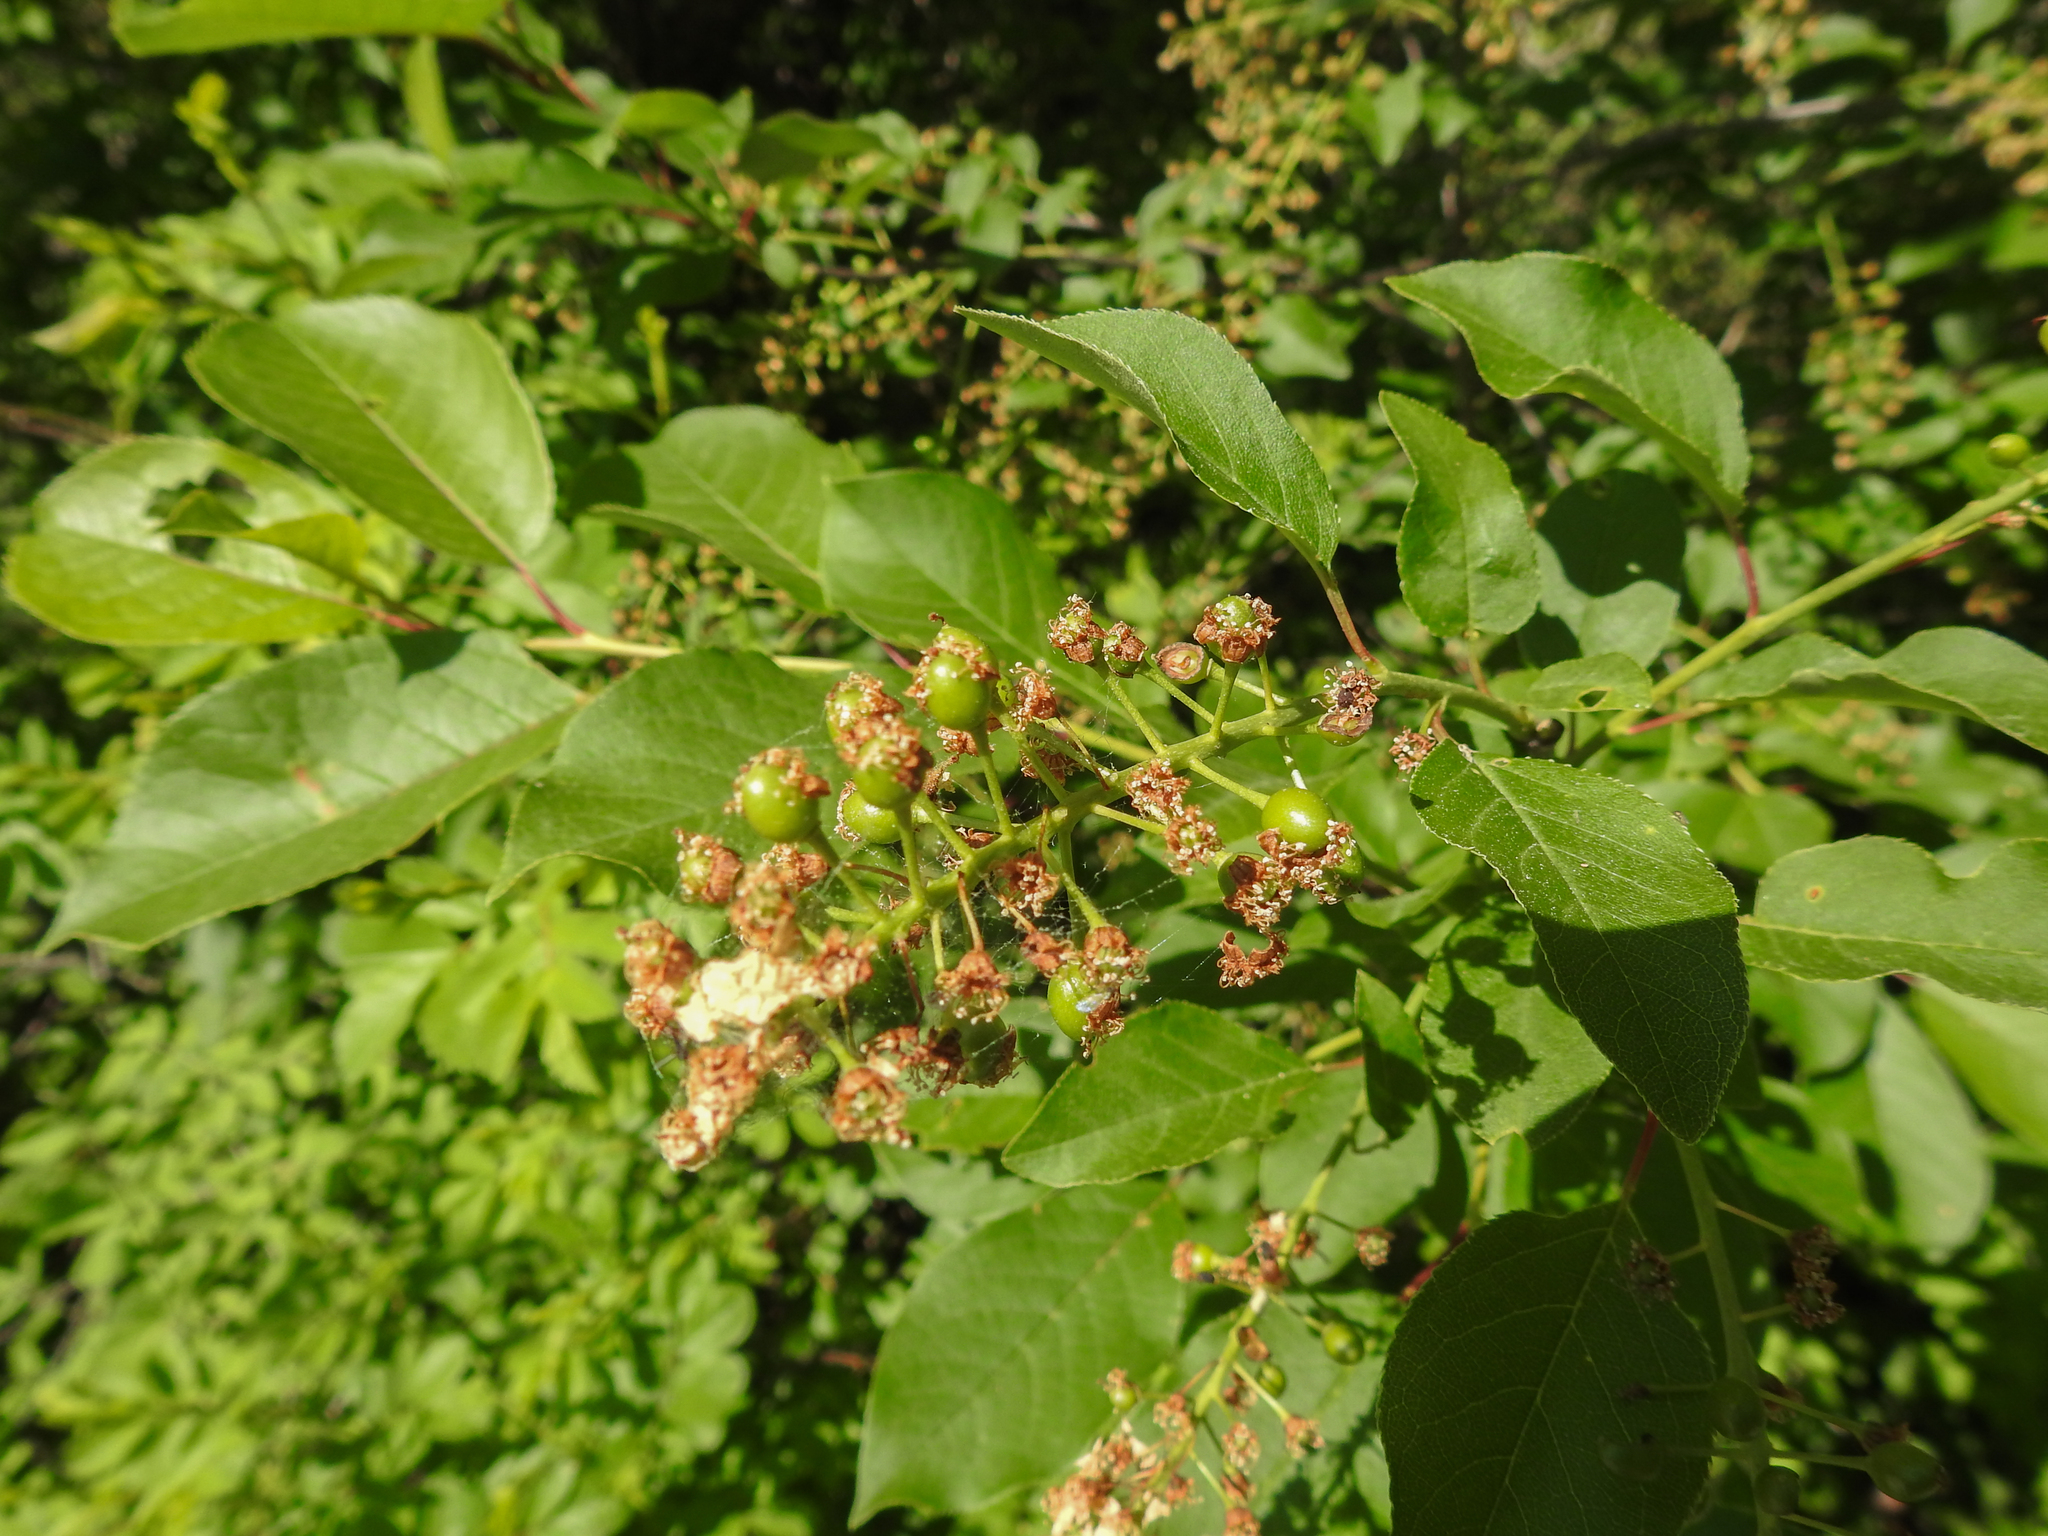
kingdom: Plantae
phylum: Tracheophyta
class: Magnoliopsida
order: Rosales
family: Rosaceae
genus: Prunus
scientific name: Prunus virginiana
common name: Chokecherry
